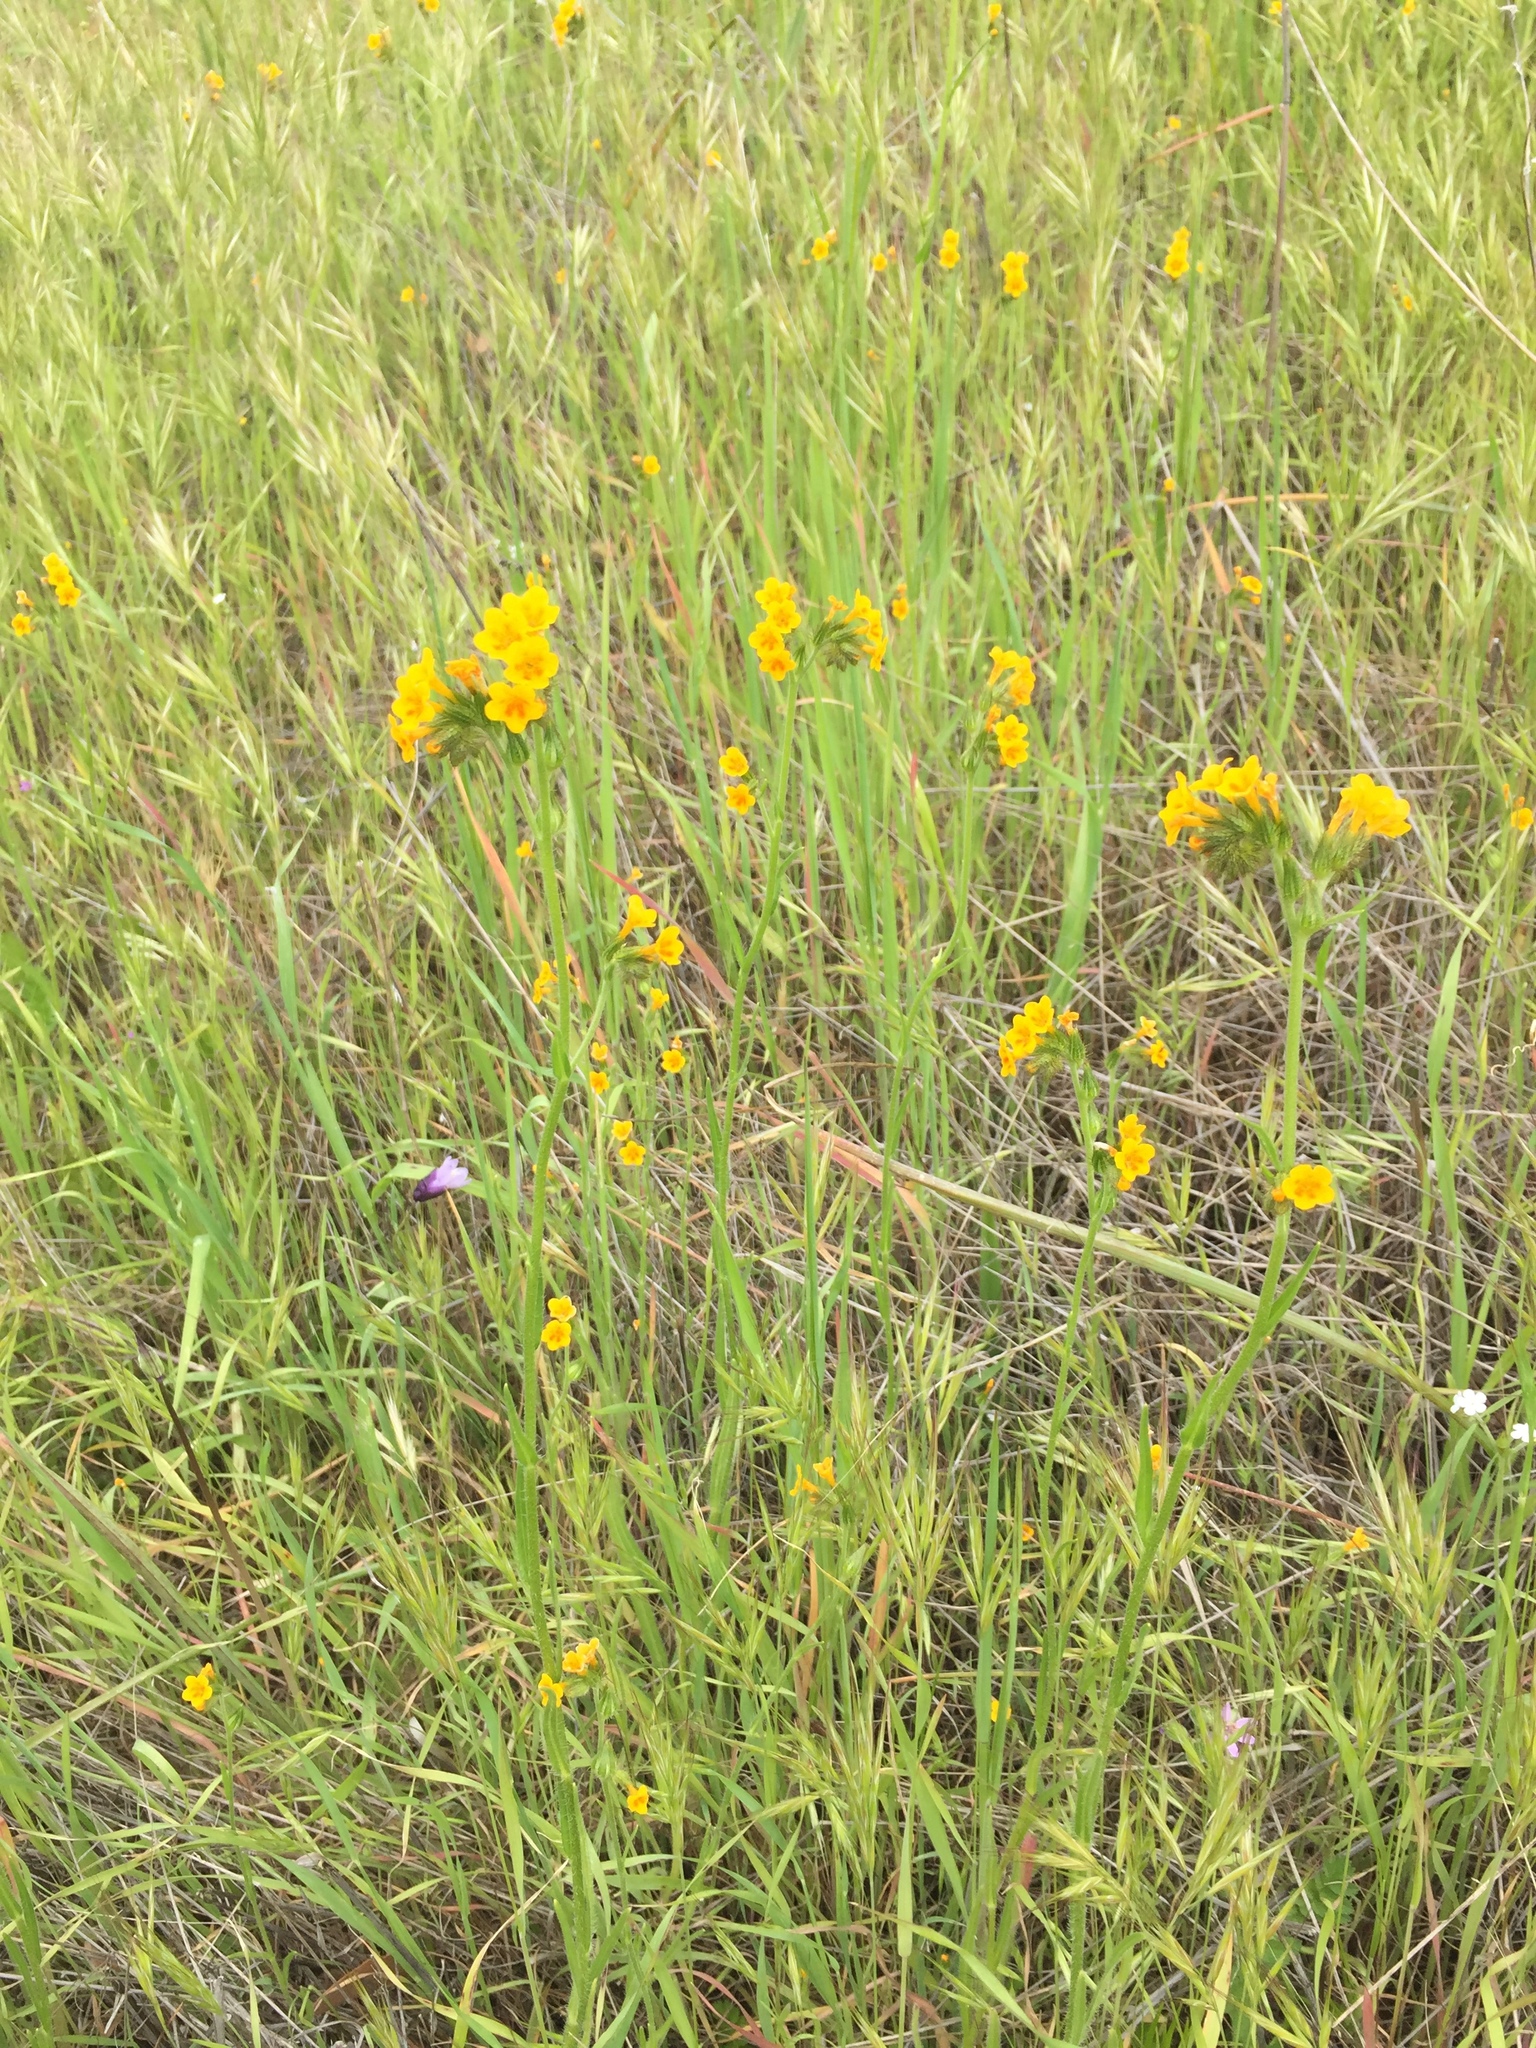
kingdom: Plantae
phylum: Tracheophyta
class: Magnoliopsida
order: Boraginales
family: Boraginaceae
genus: Amsinckia
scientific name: Amsinckia menziesii
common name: Menzies' fiddleneck
